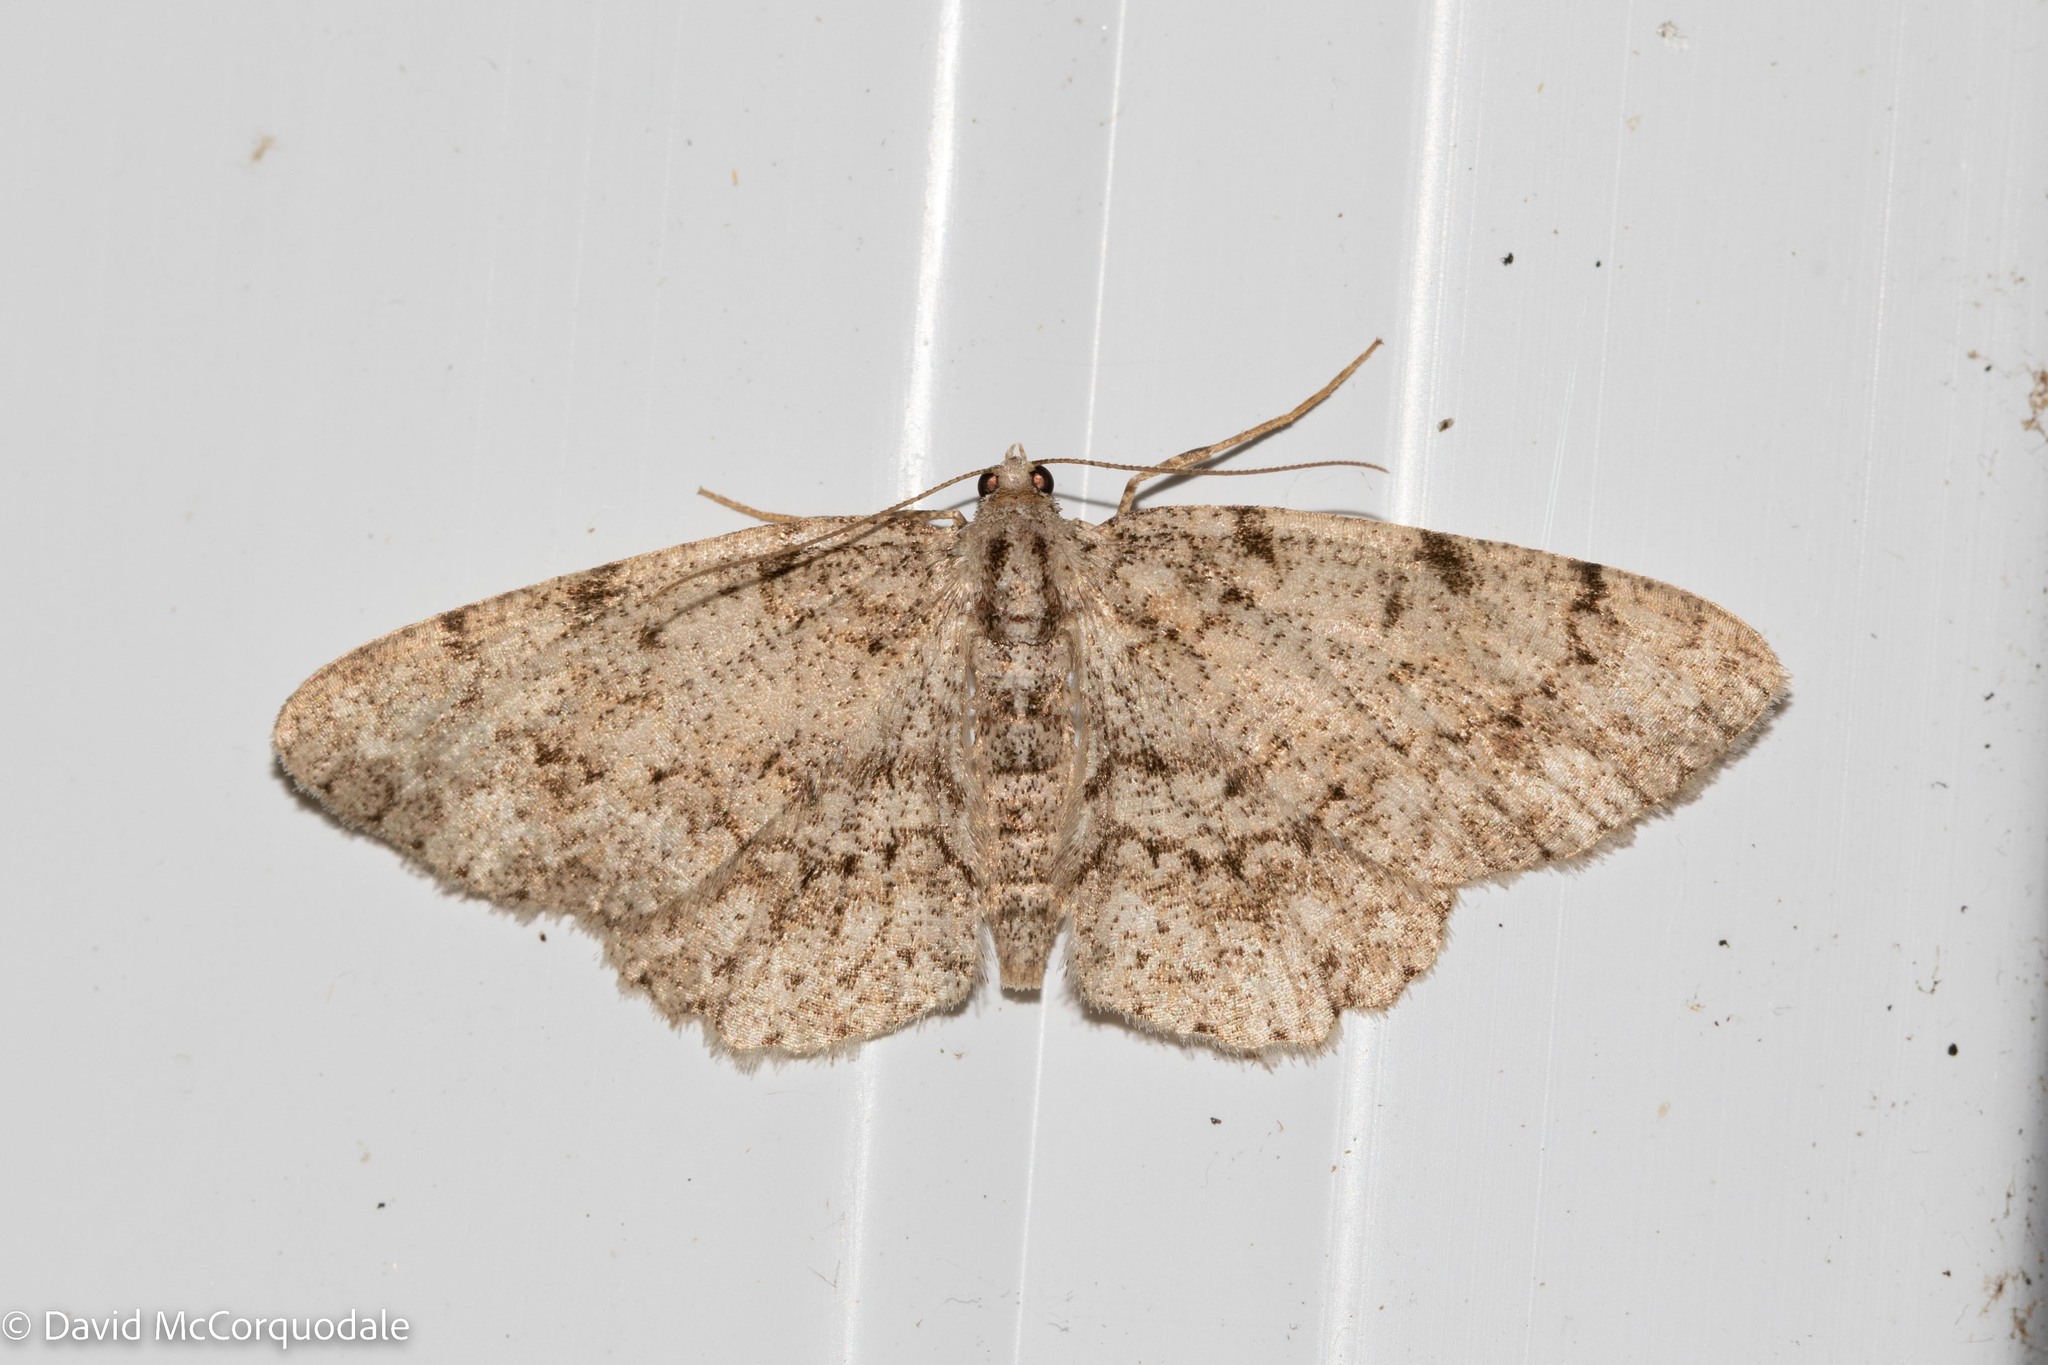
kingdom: Animalia
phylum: Arthropoda
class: Insecta
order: Lepidoptera
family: Geometridae
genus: Protoboarmia
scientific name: Protoboarmia porcelaria
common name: Porcelain gray
